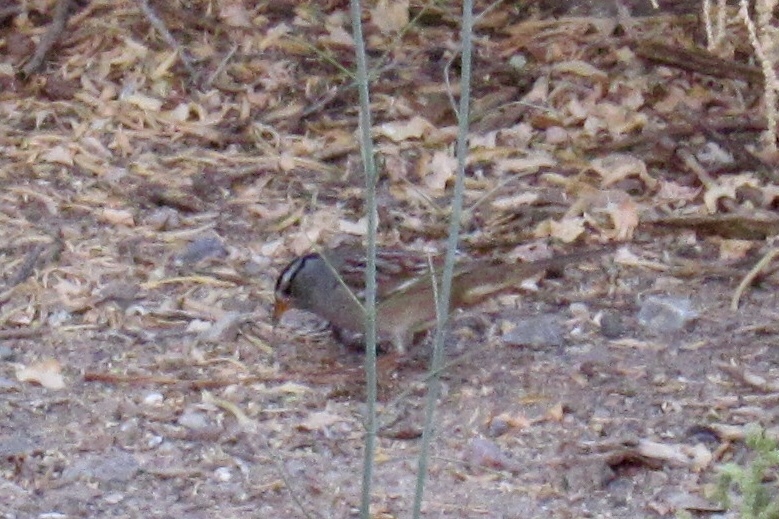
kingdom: Animalia
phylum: Chordata
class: Aves
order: Passeriformes
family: Passerellidae
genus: Zonotrichia
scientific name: Zonotrichia leucophrys
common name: White-crowned sparrow
